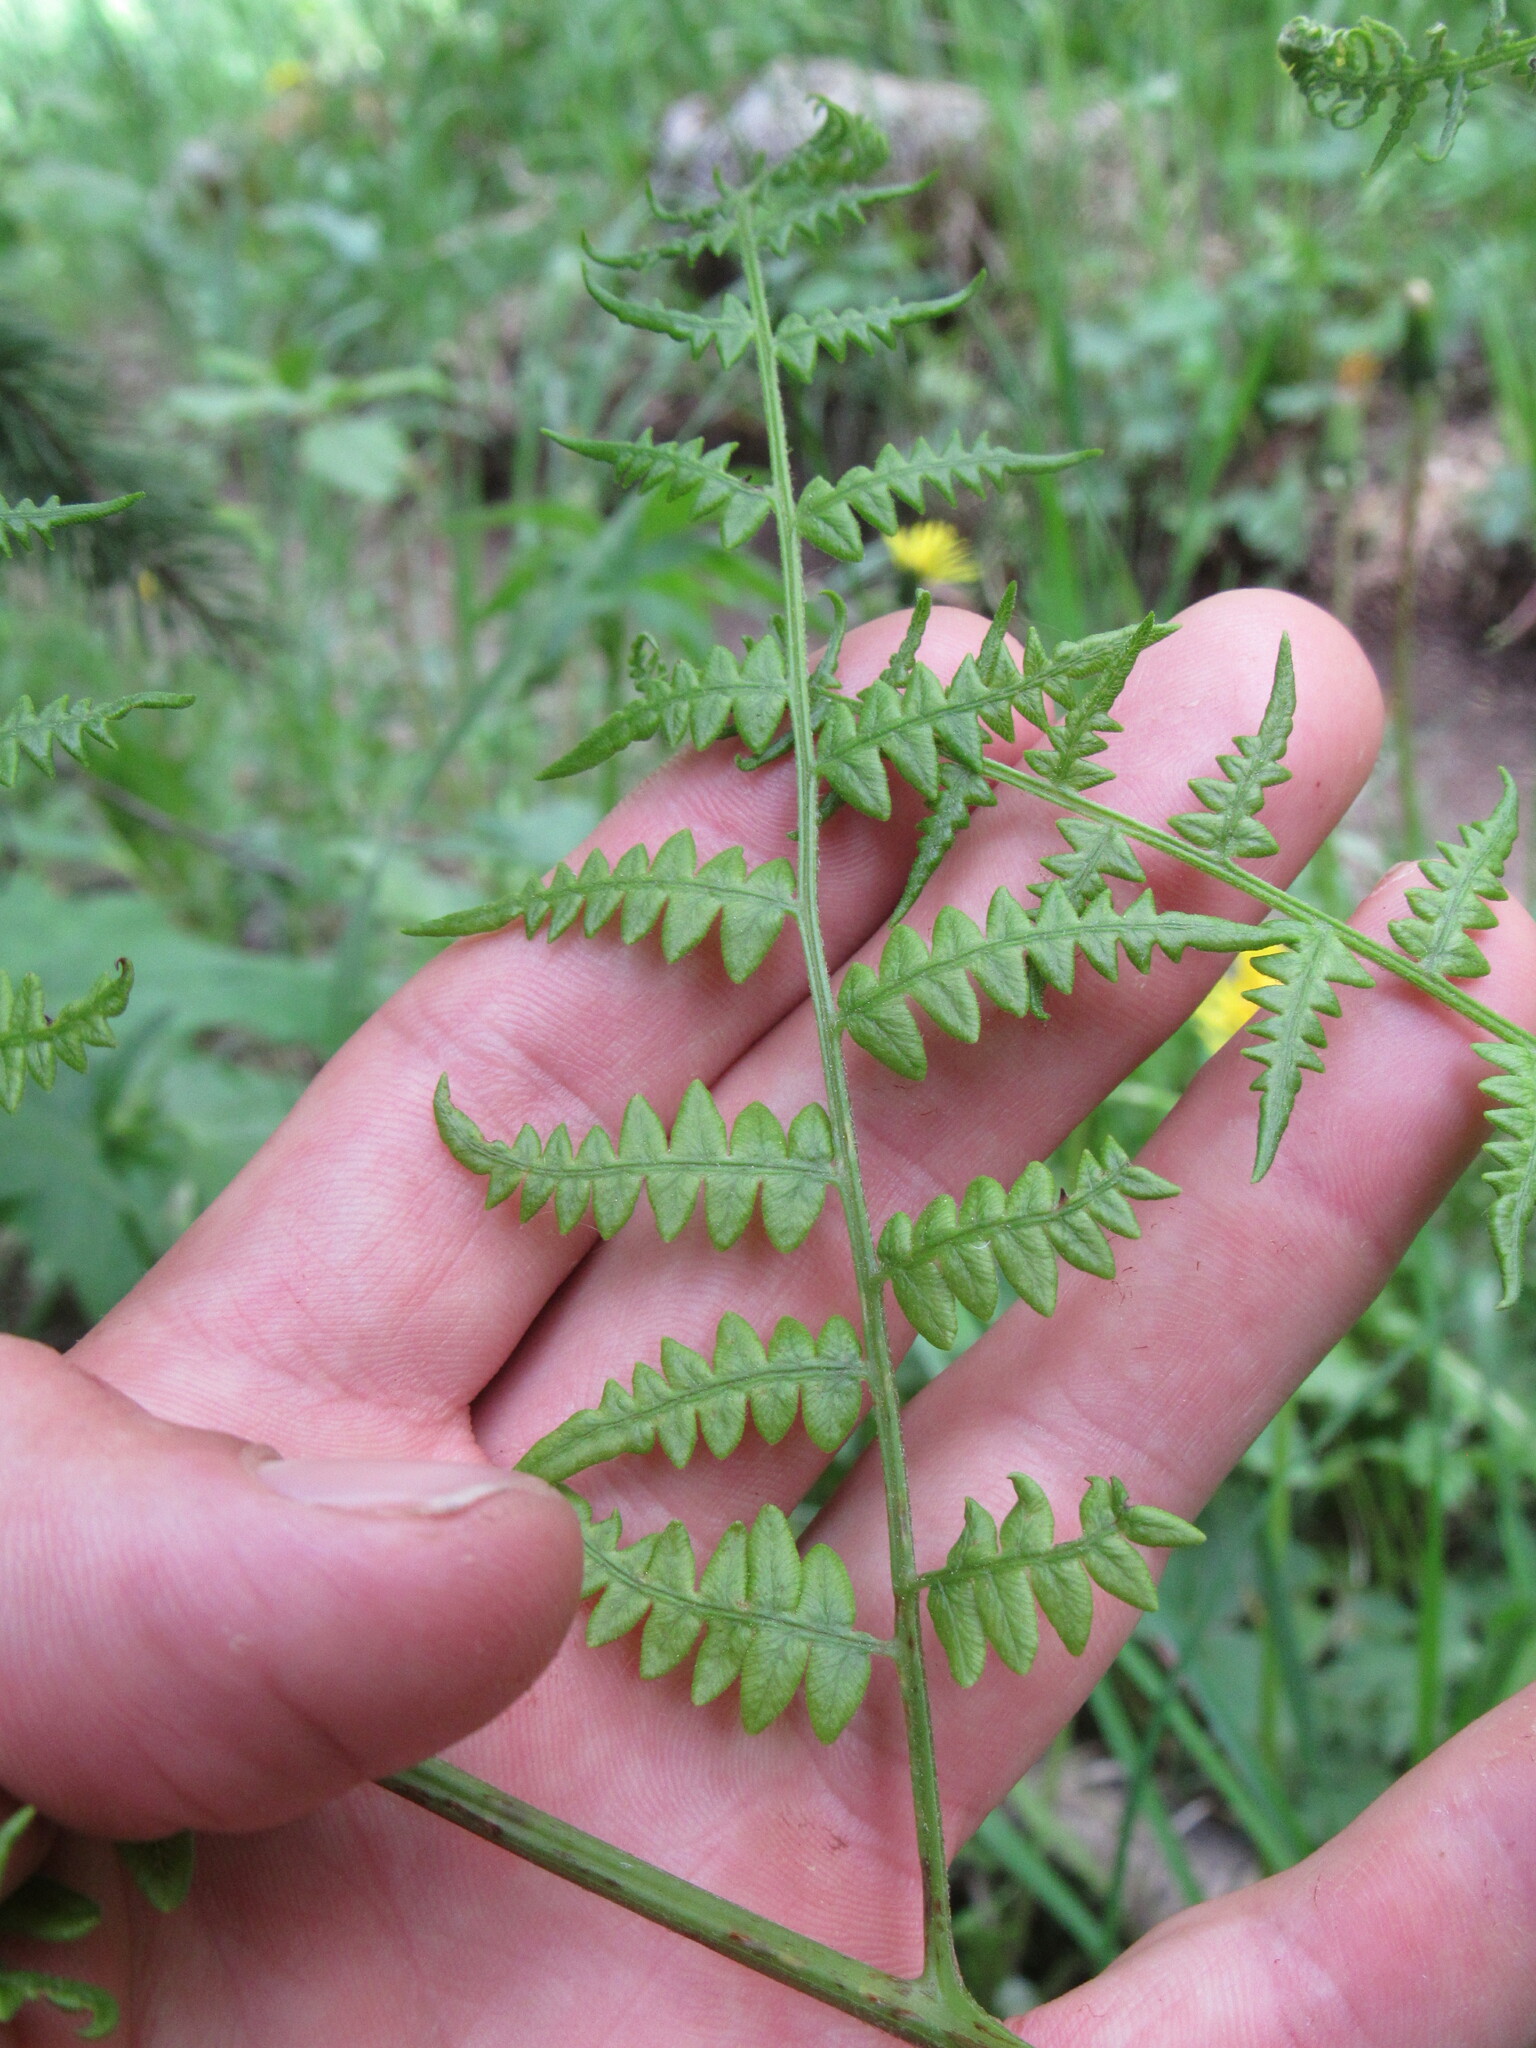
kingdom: Plantae
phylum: Tracheophyta
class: Polypodiopsida
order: Polypodiales
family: Dennstaedtiaceae
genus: Pteridium
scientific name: Pteridium aquilinum
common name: Bracken
